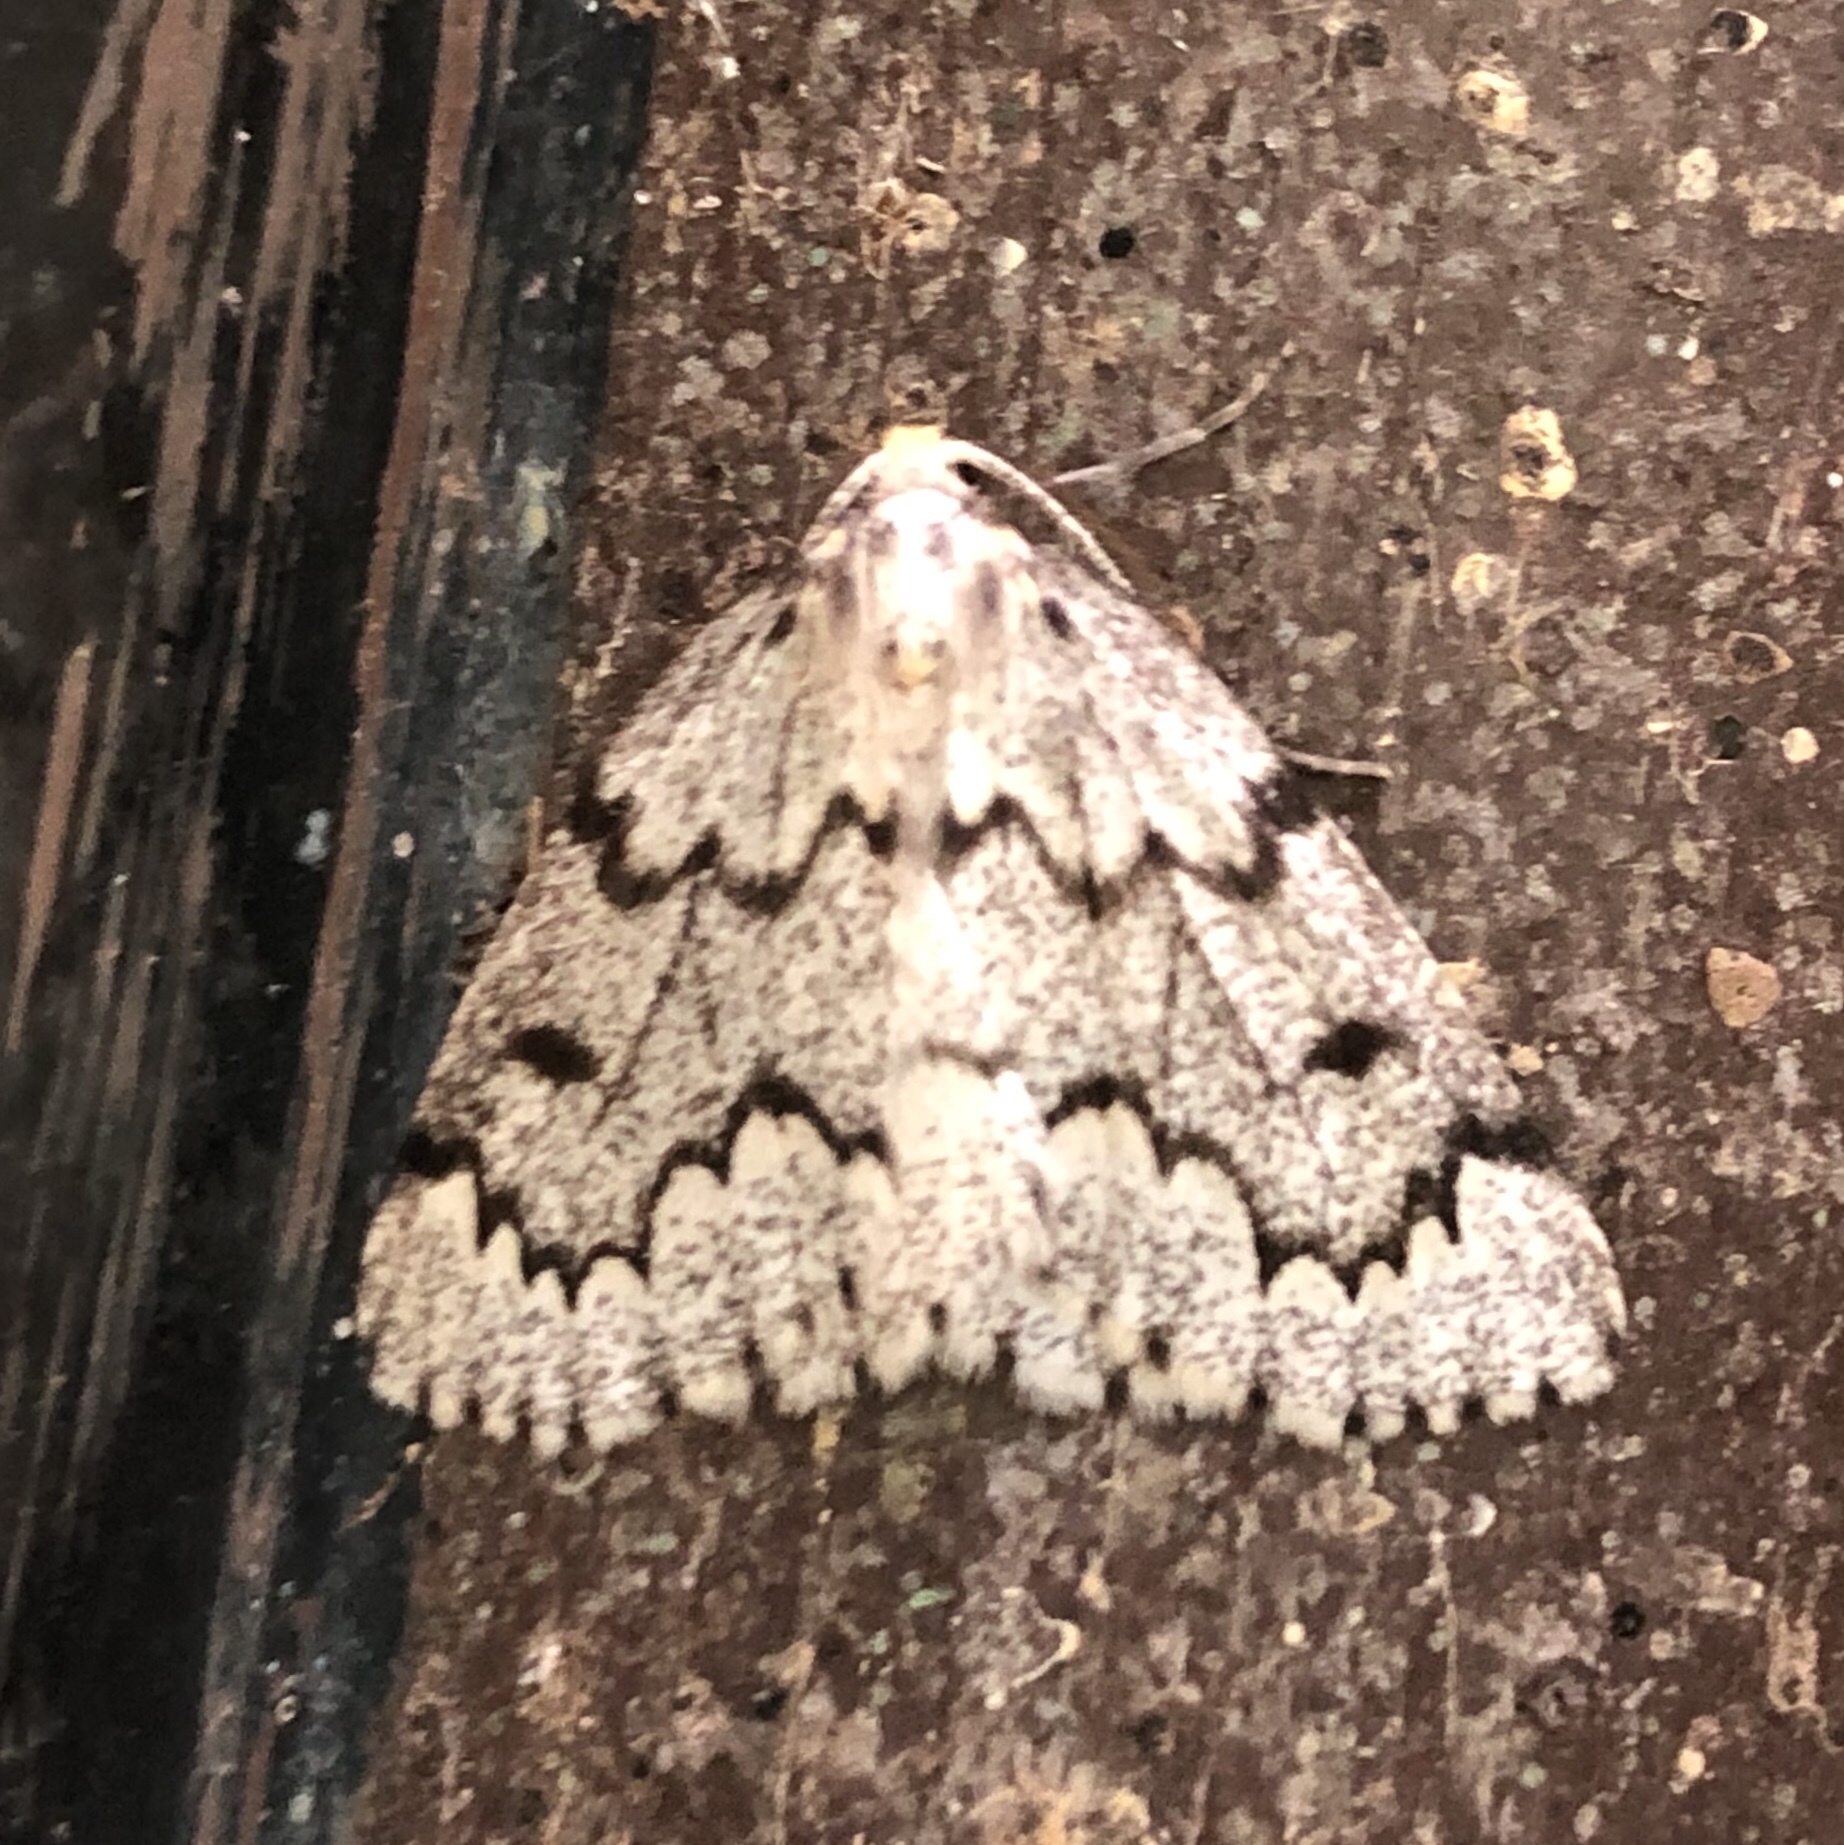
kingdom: Animalia
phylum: Arthropoda
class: Insecta
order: Lepidoptera
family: Geometridae
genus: Nepytia
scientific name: Nepytia canosaria
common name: False hemlock looper
